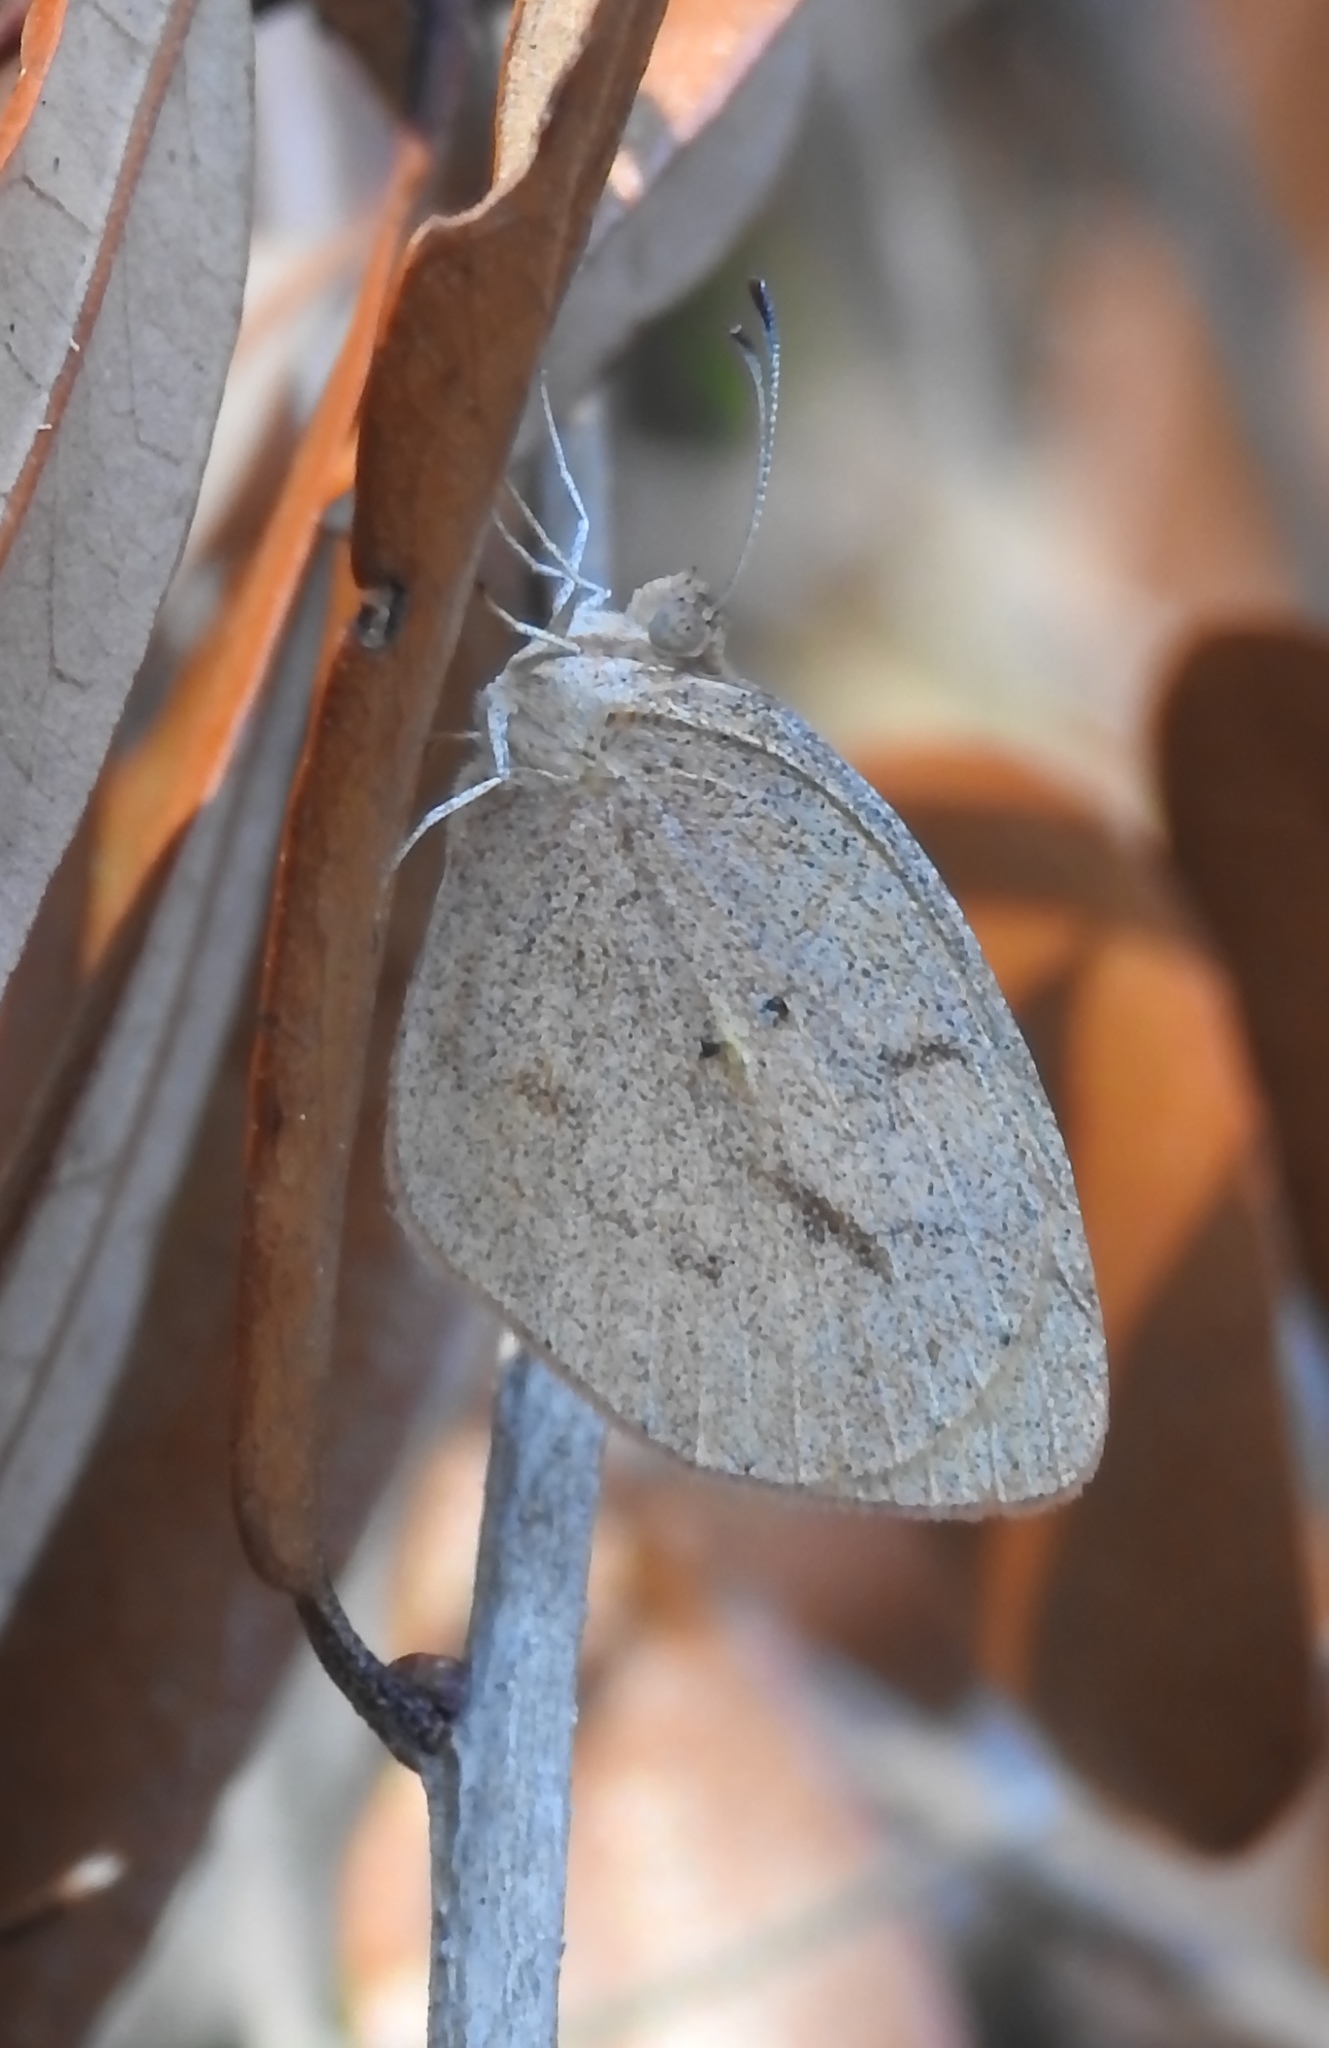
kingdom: Animalia
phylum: Arthropoda
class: Insecta
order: Lepidoptera
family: Pieridae
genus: Eurema
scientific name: Eurema daira
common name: Barred sulphur
